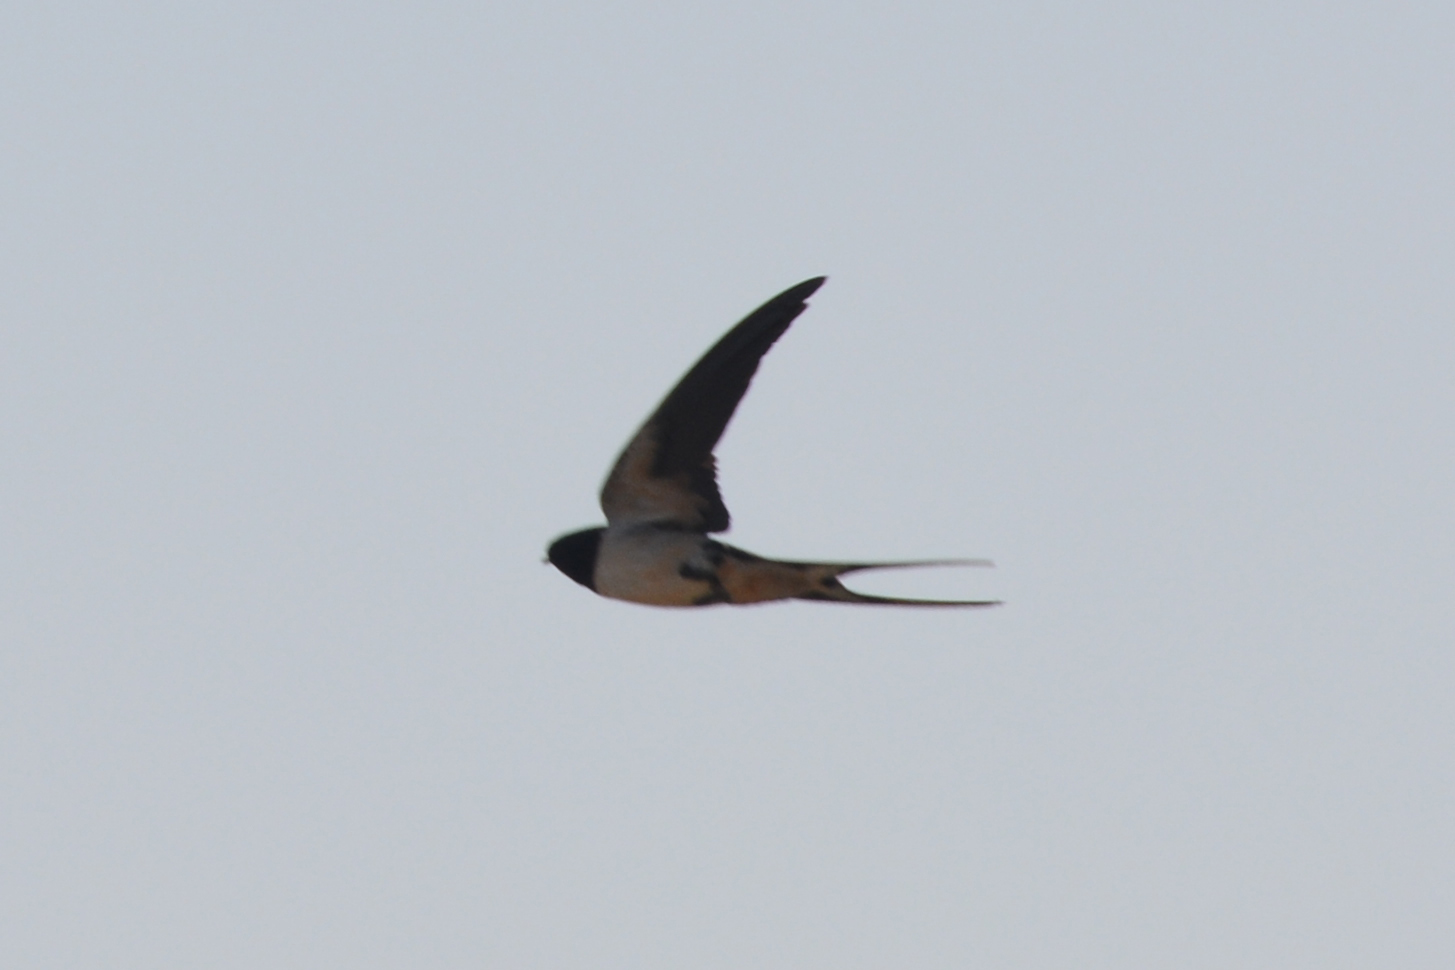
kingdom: Animalia
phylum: Chordata
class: Aves
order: Passeriformes
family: Hirundinidae
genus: Hirundo
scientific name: Hirundo rustica
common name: Barn swallow
